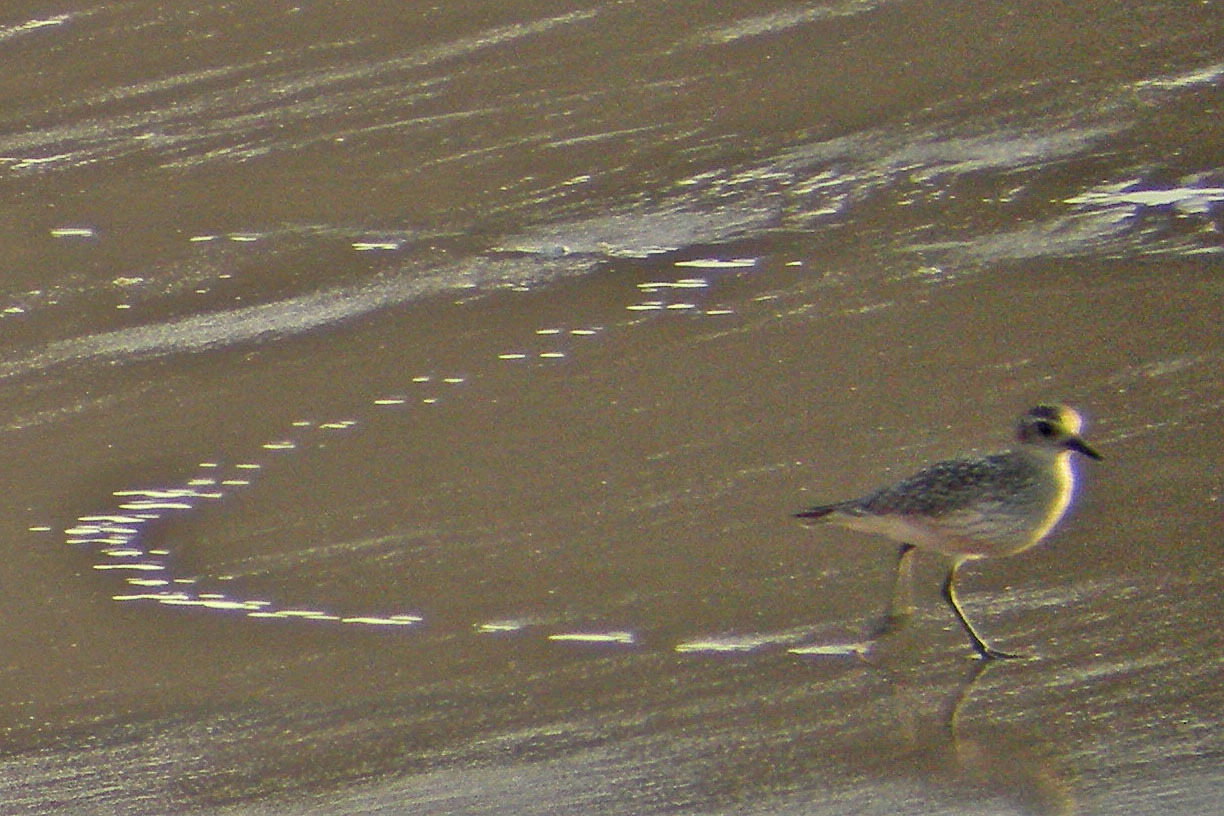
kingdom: Animalia
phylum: Chordata
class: Aves
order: Charadriiformes
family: Charadriidae
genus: Pluvialis
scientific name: Pluvialis squatarola
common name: Grey plover
